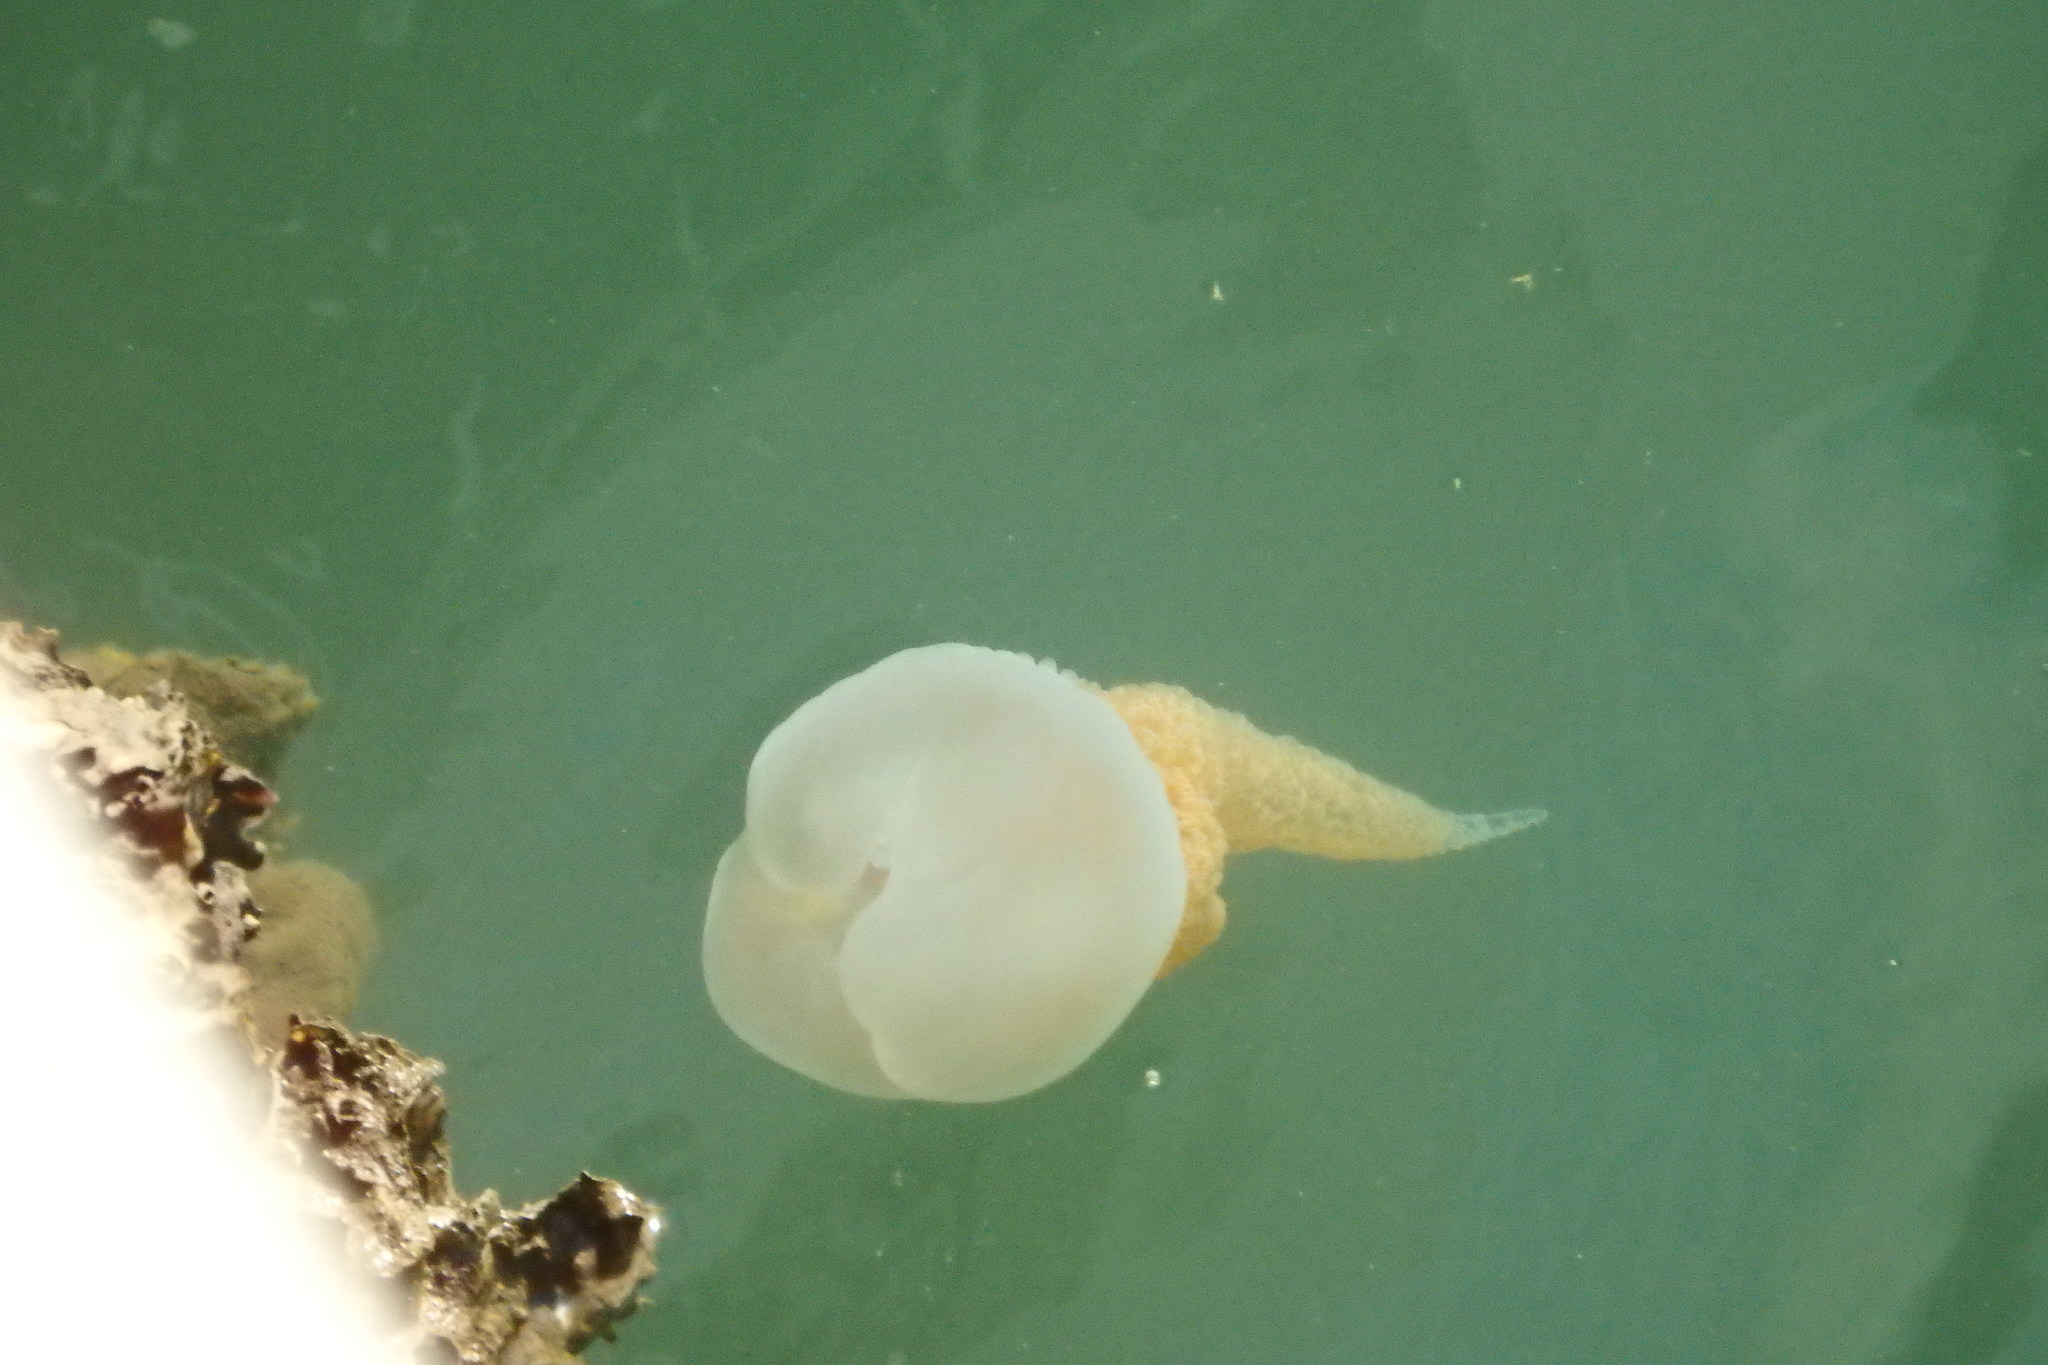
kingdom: Animalia
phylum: Cnidaria
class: Scyphozoa
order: Rhizostomeae
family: Catostylidae
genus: Catostylus
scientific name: Catostylus tagi
